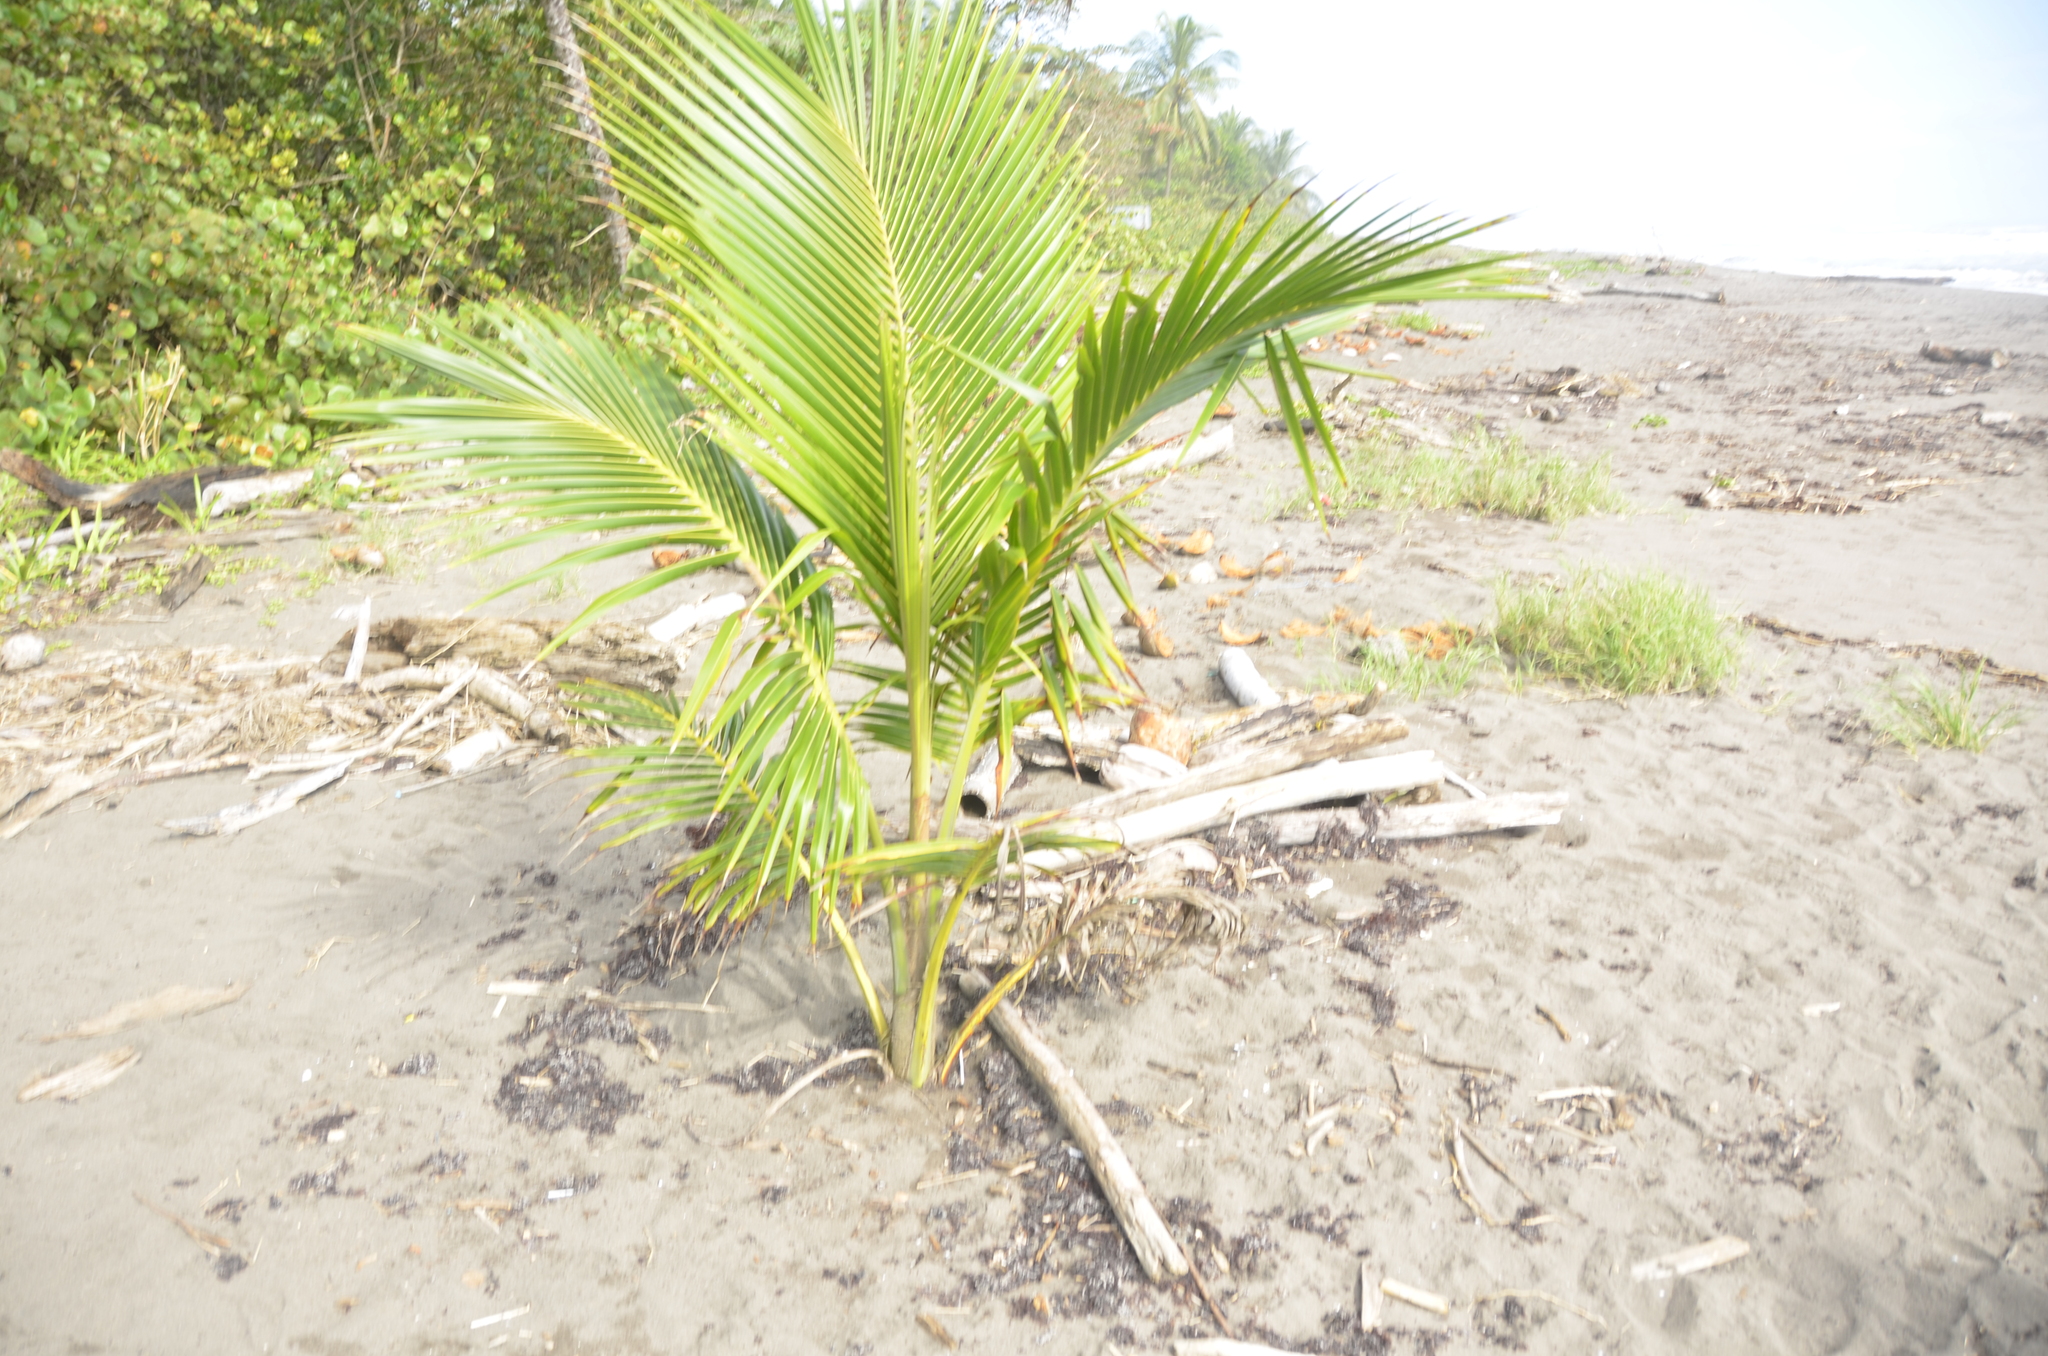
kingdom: Plantae
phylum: Tracheophyta
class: Liliopsida
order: Arecales
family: Arecaceae
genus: Cocos
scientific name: Cocos nucifera
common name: Coconut palm
